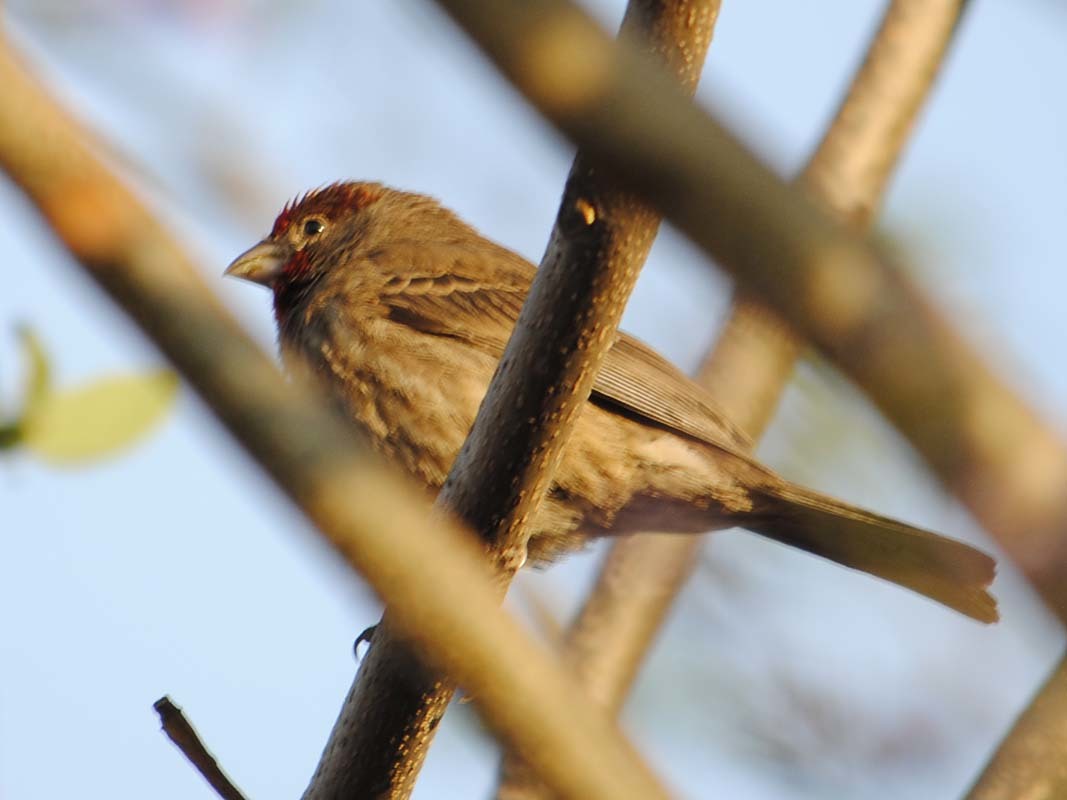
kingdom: Animalia
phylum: Chordata
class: Aves
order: Passeriformes
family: Fringillidae
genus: Haemorhous
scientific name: Haemorhous mexicanus
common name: House finch
